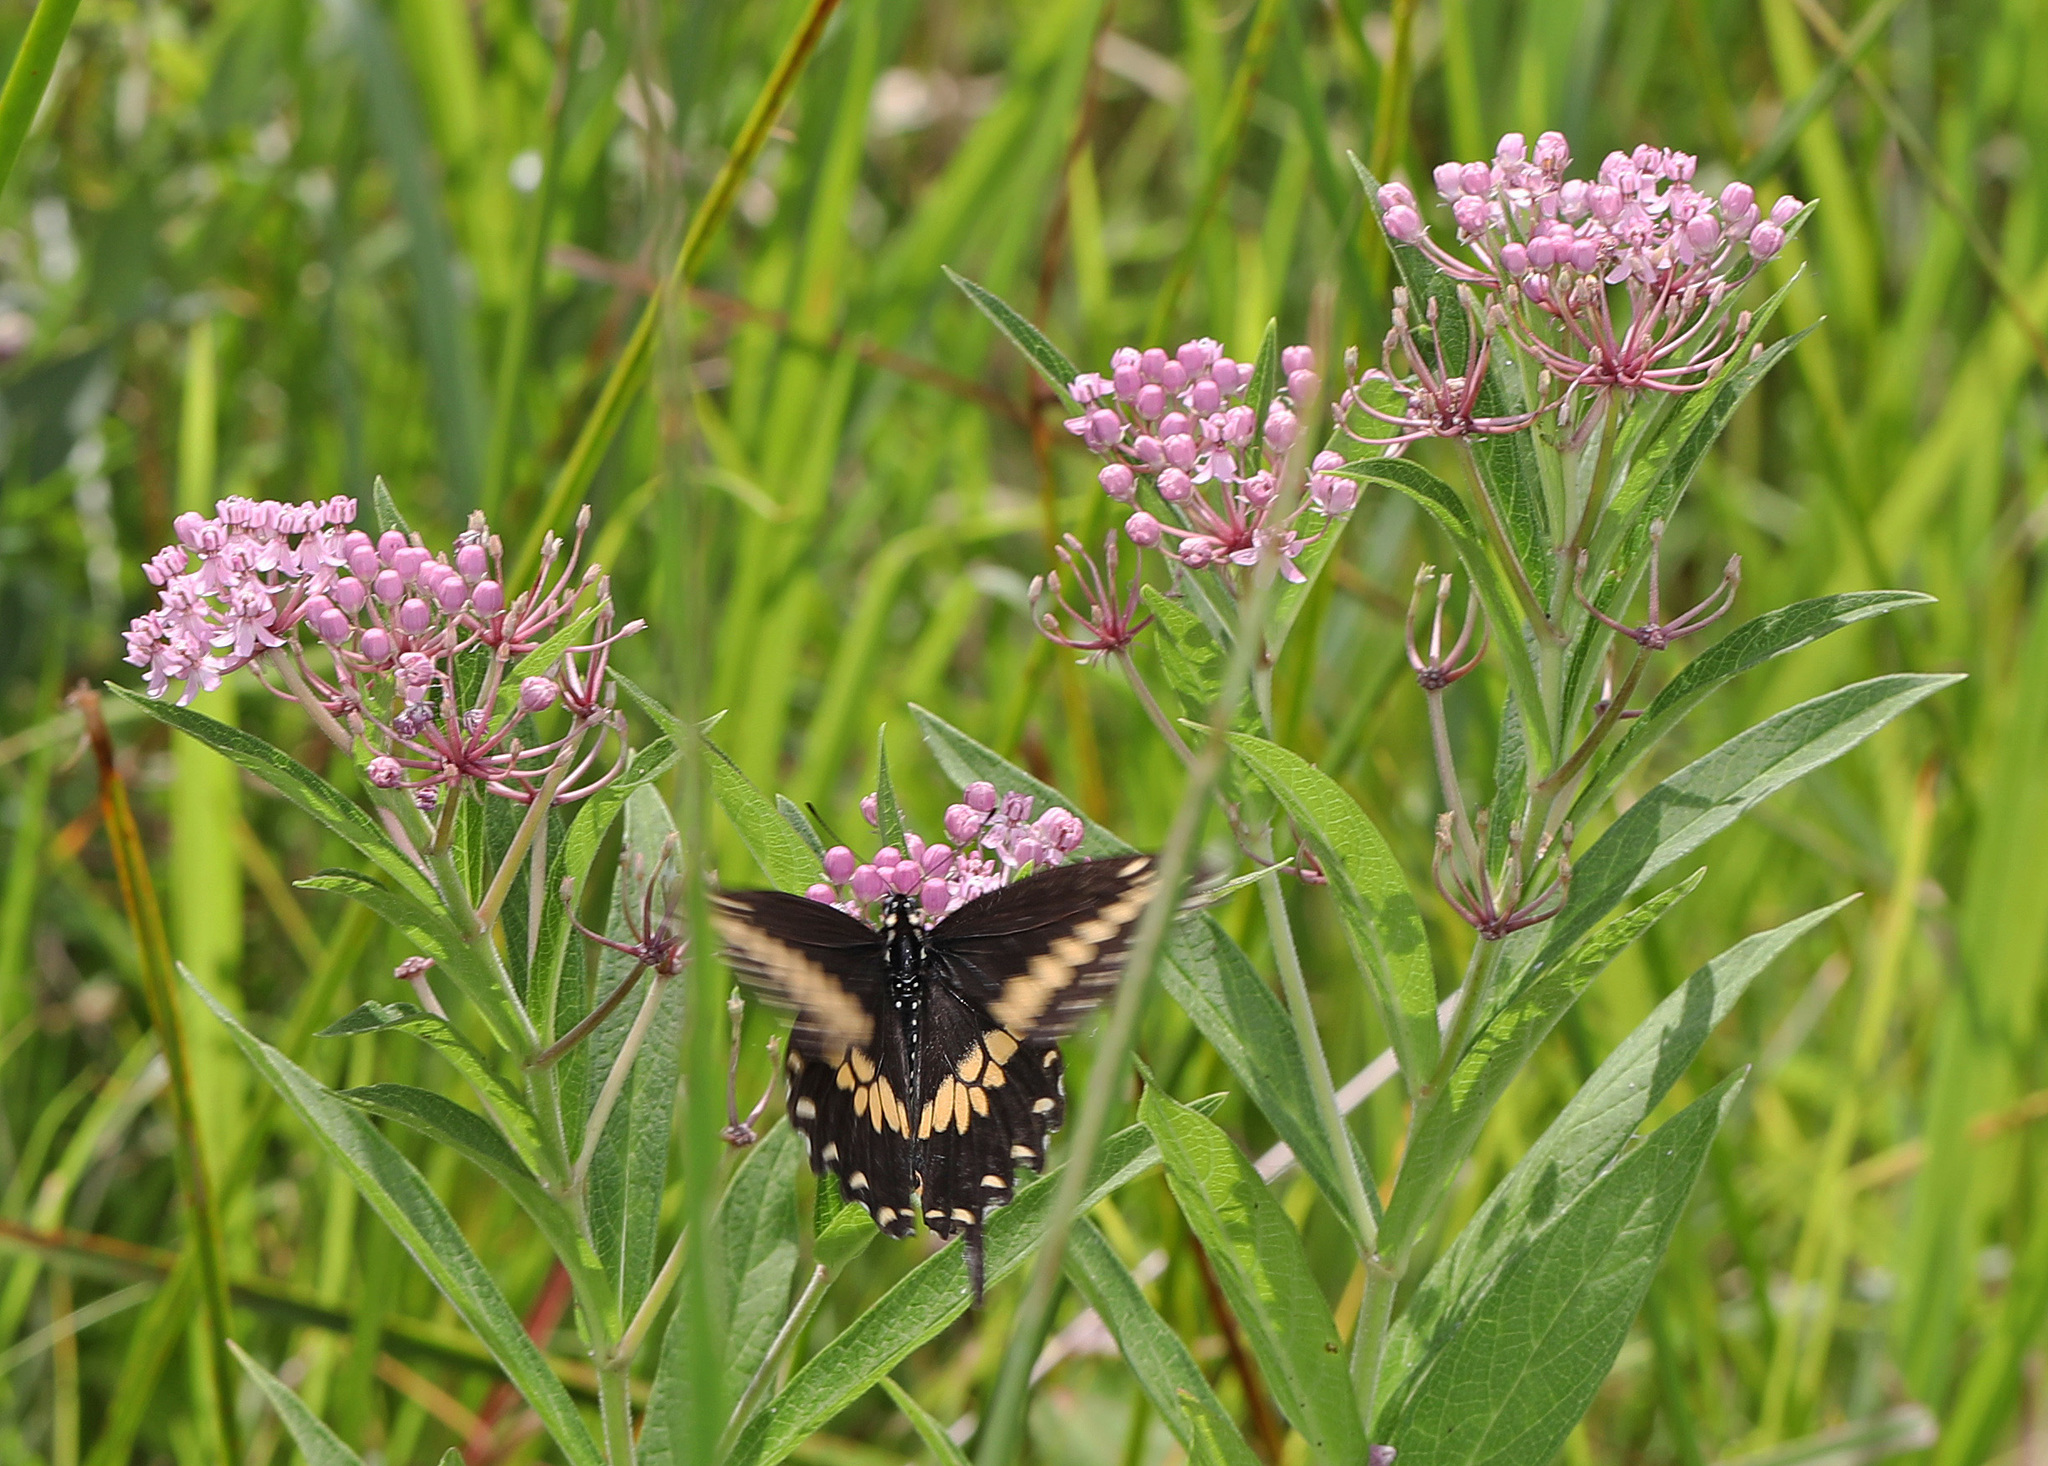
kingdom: Animalia
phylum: Arthropoda
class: Insecta
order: Lepidoptera
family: Papilionidae
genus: Papilio
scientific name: Papilio polyxenes
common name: Black swallowtail
